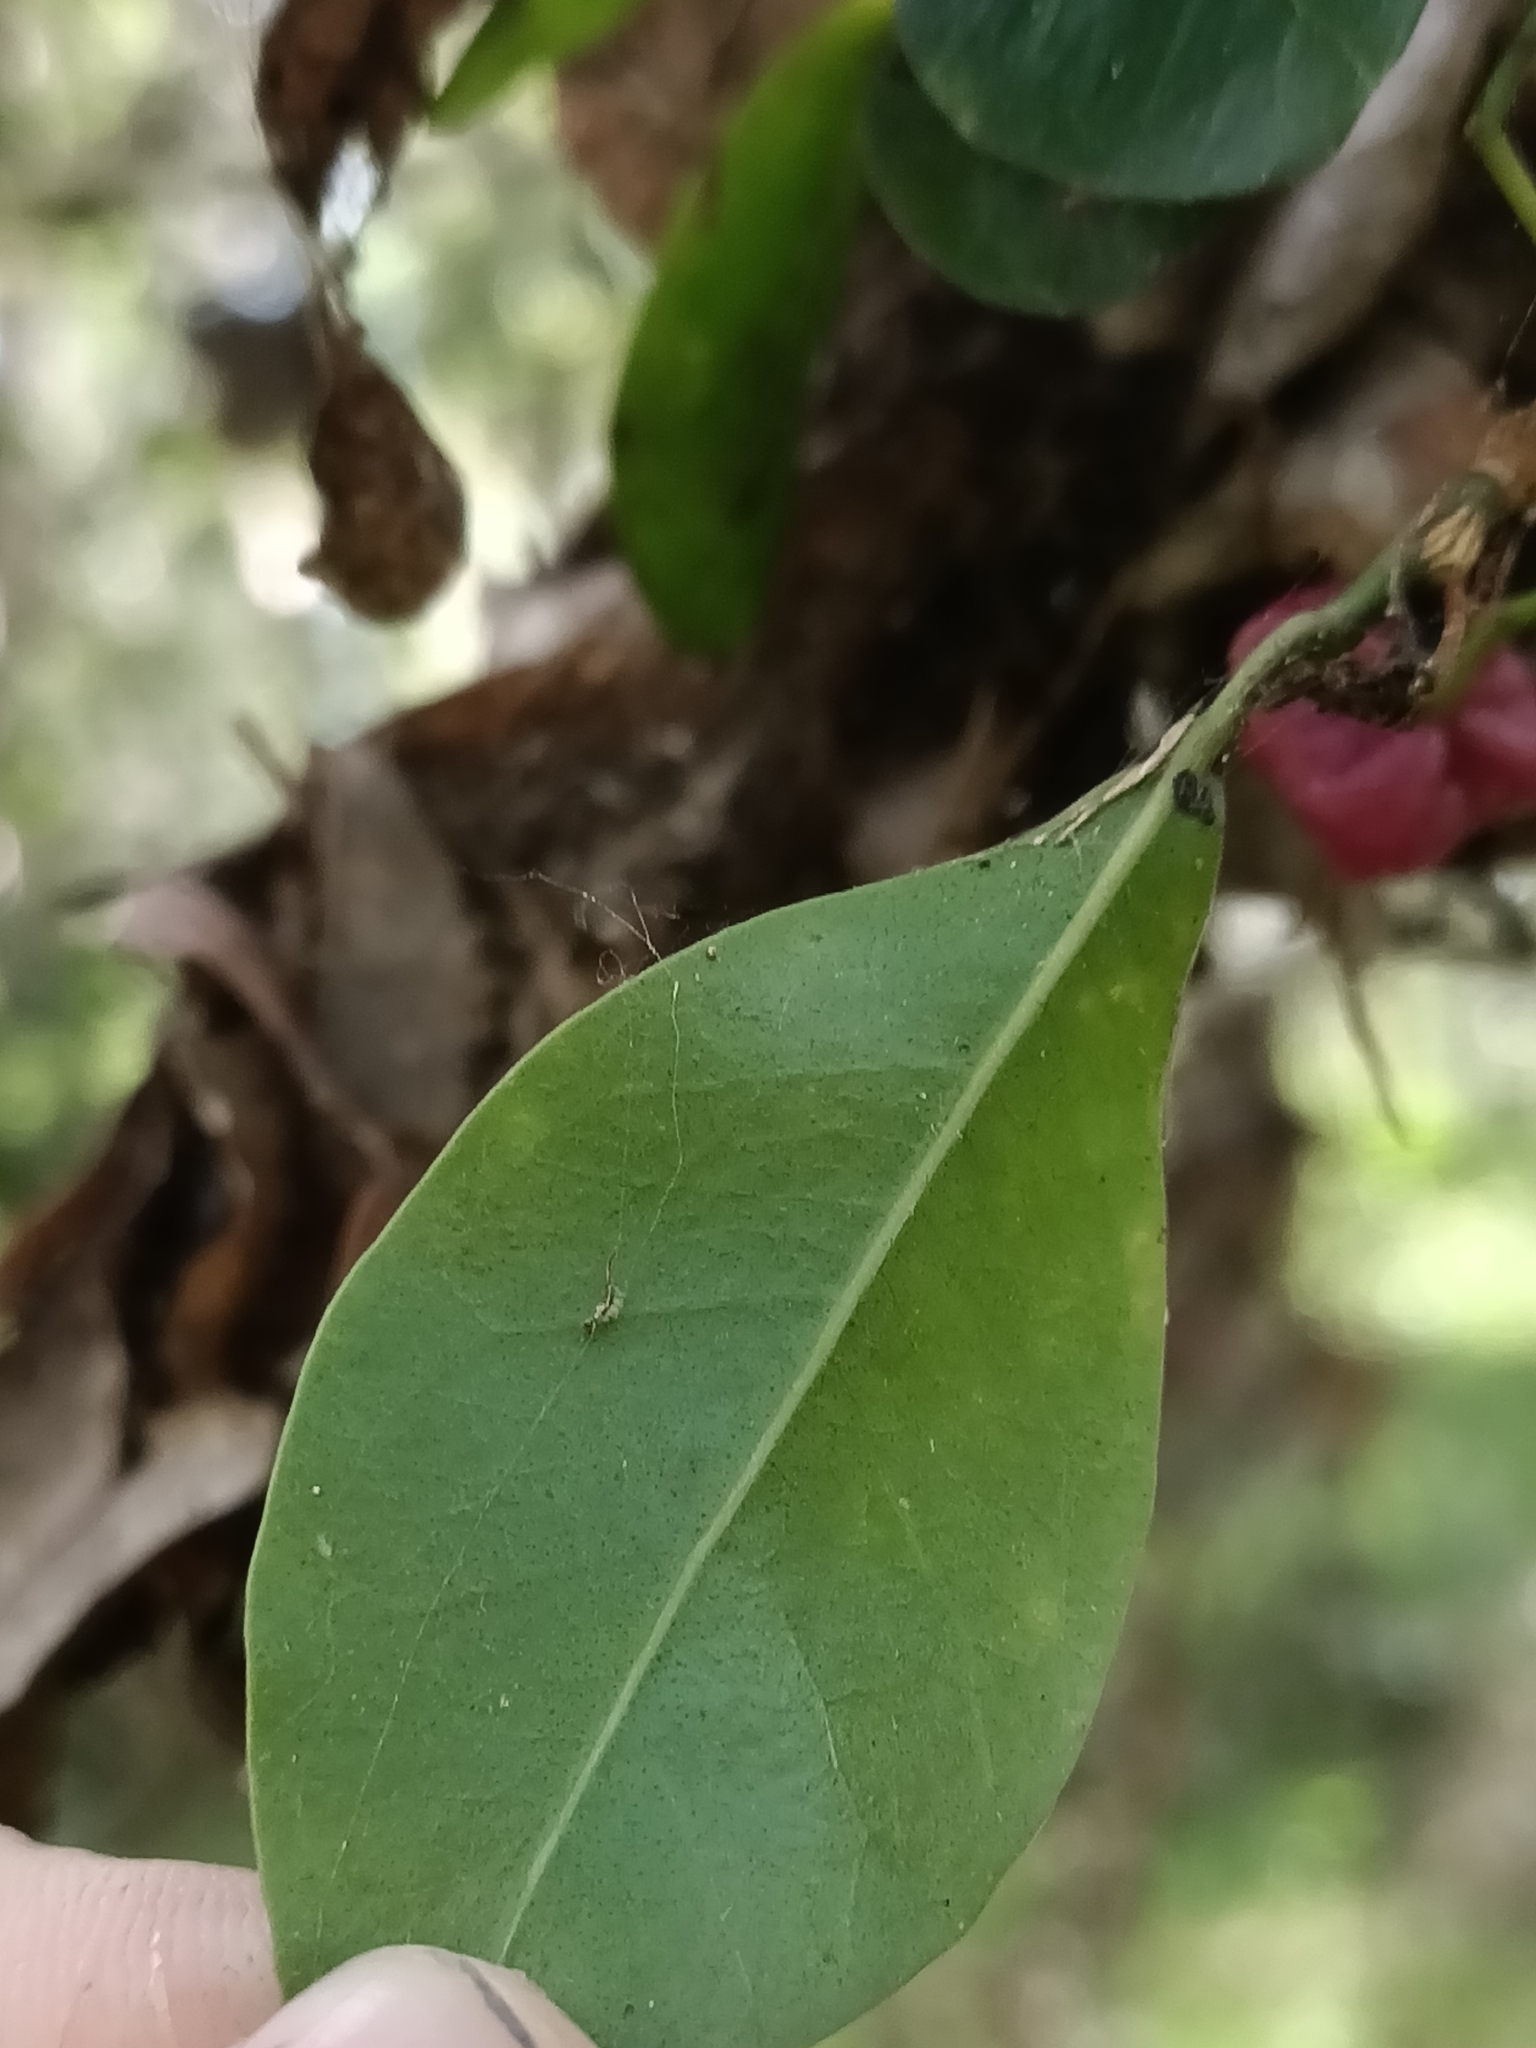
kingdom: Plantae
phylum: Tracheophyta
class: Magnoliopsida
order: Sapindales
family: Rutaceae
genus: Acronychia
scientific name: Acronychia laevis
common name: Hard aspen
